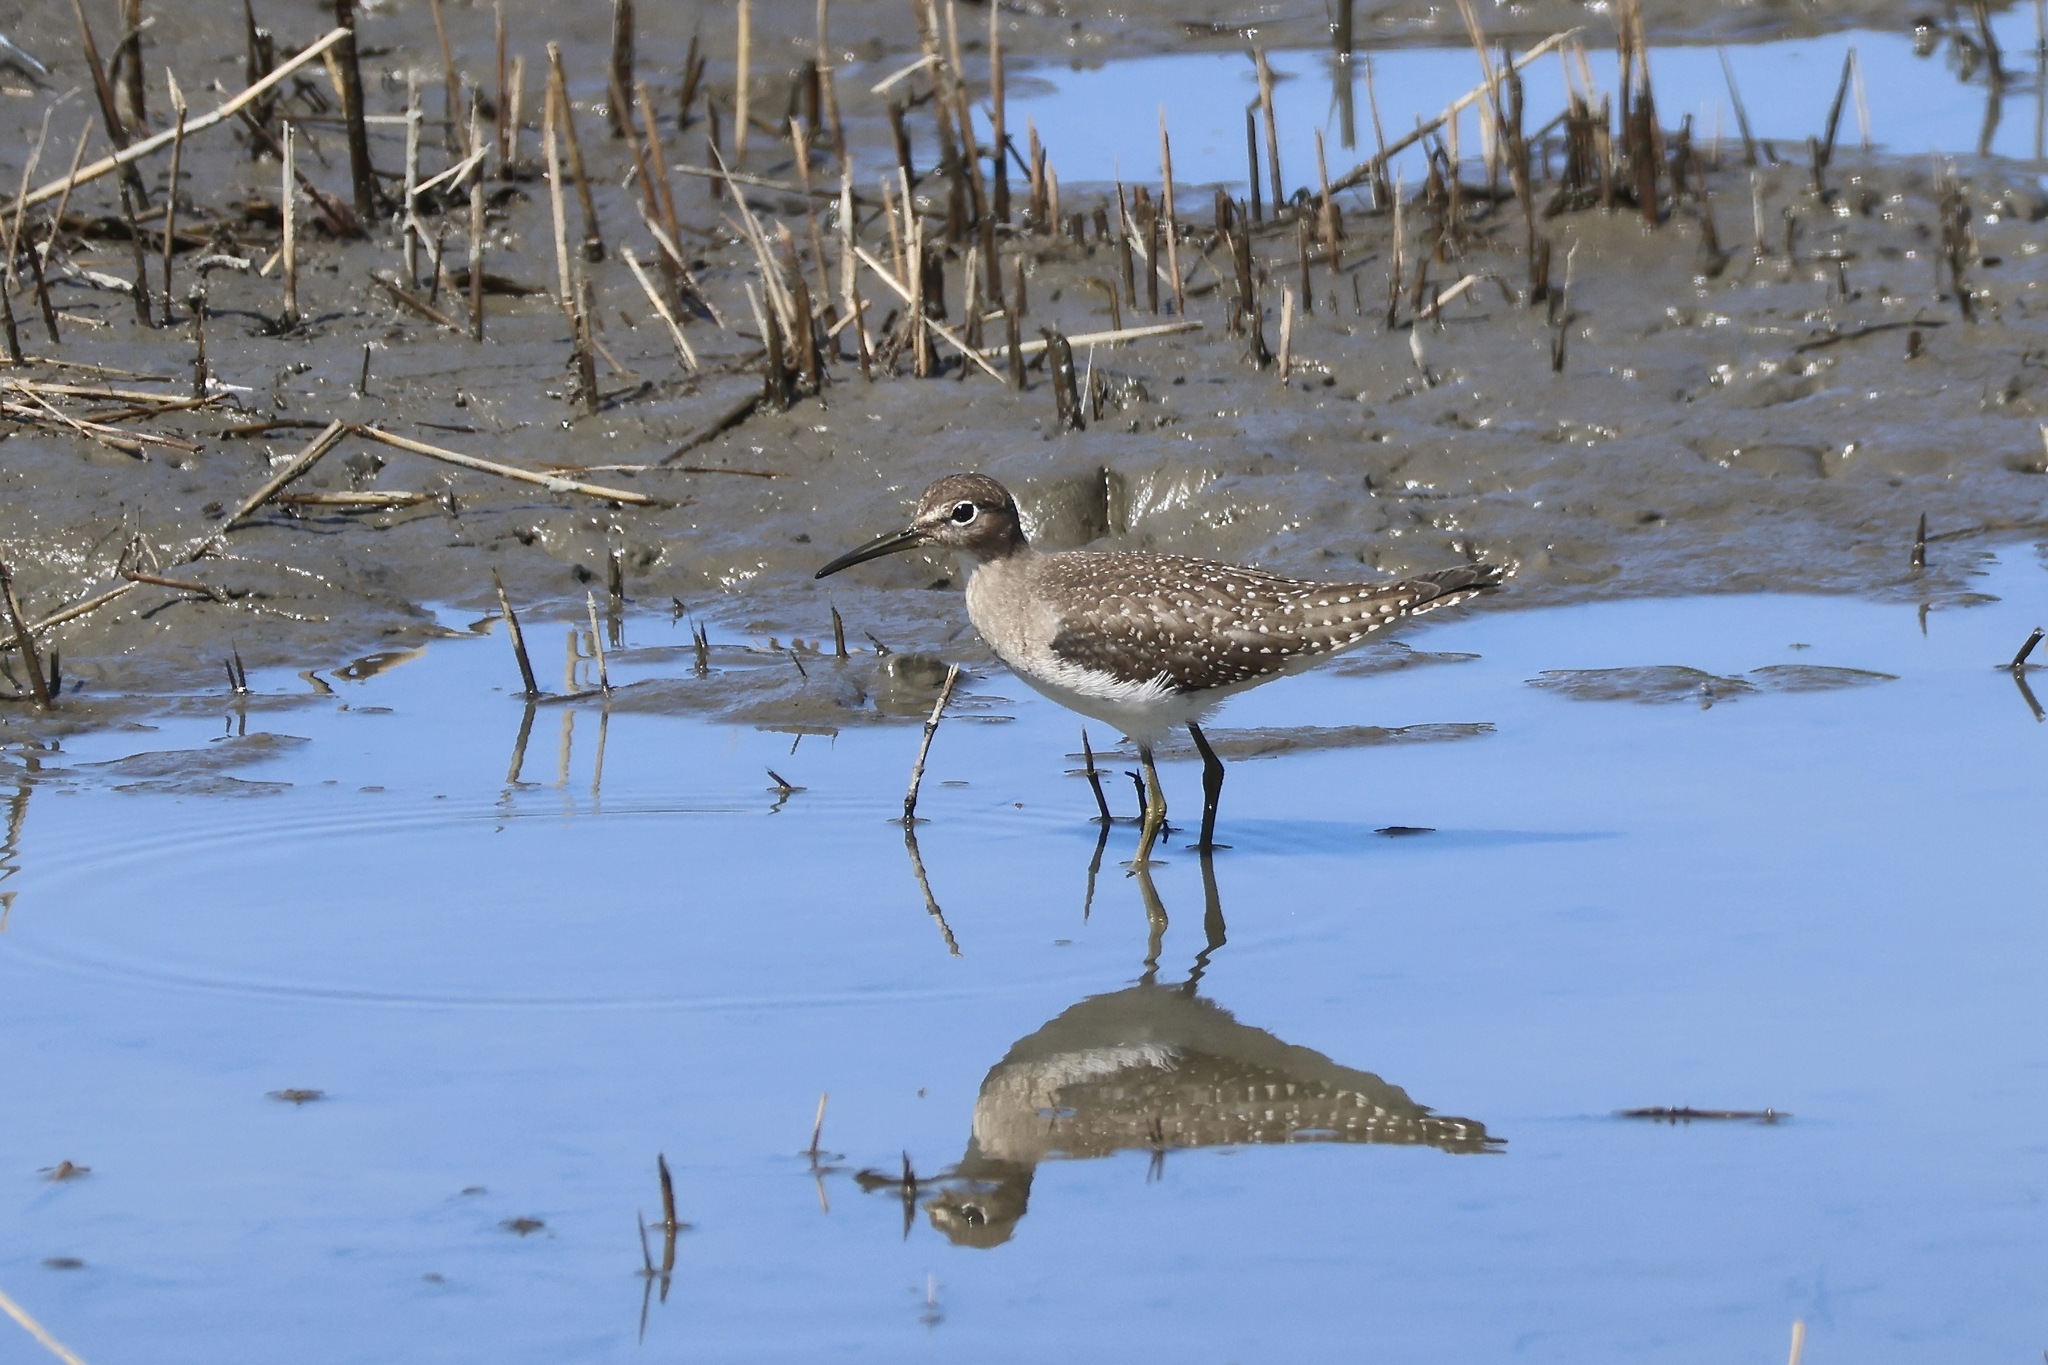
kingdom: Animalia
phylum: Chordata
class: Aves
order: Charadriiformes
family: Scolopacidae
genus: Tringa
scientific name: Tringa solitaria
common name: Solitary sandpiper
